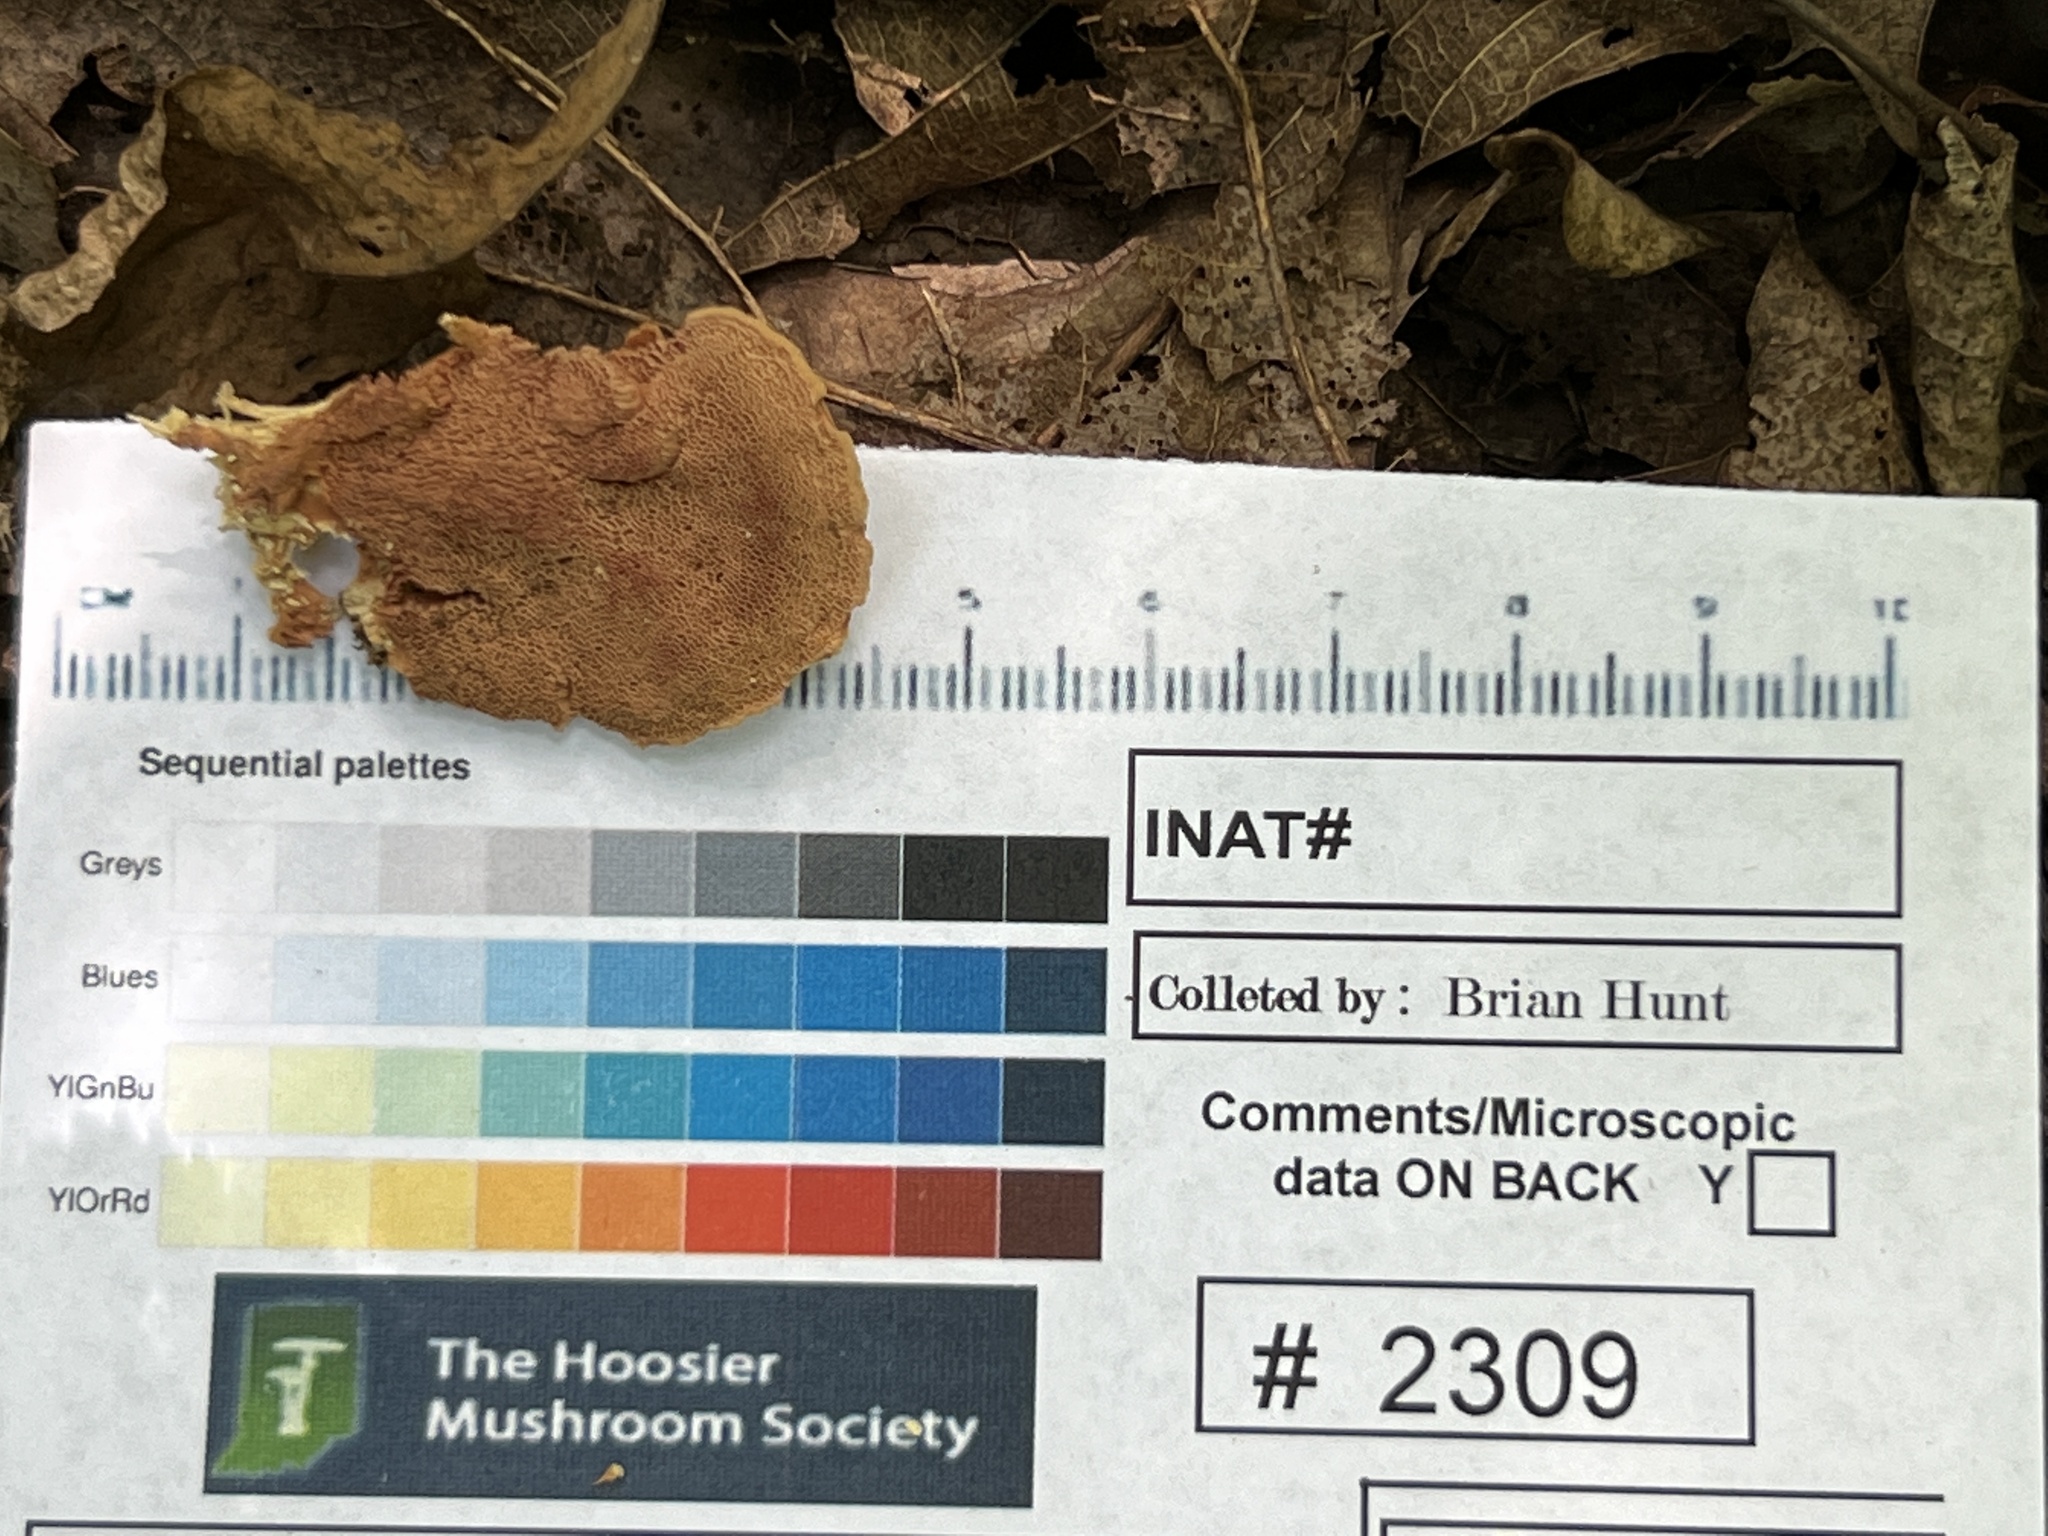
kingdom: Fungi
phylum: Basidiomycota
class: Agaricomycetes
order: Polyporales
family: Phanerochaetaceae
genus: Hapalopilus
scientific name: Hapalopilus rutilans
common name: Tender nesting polypore
